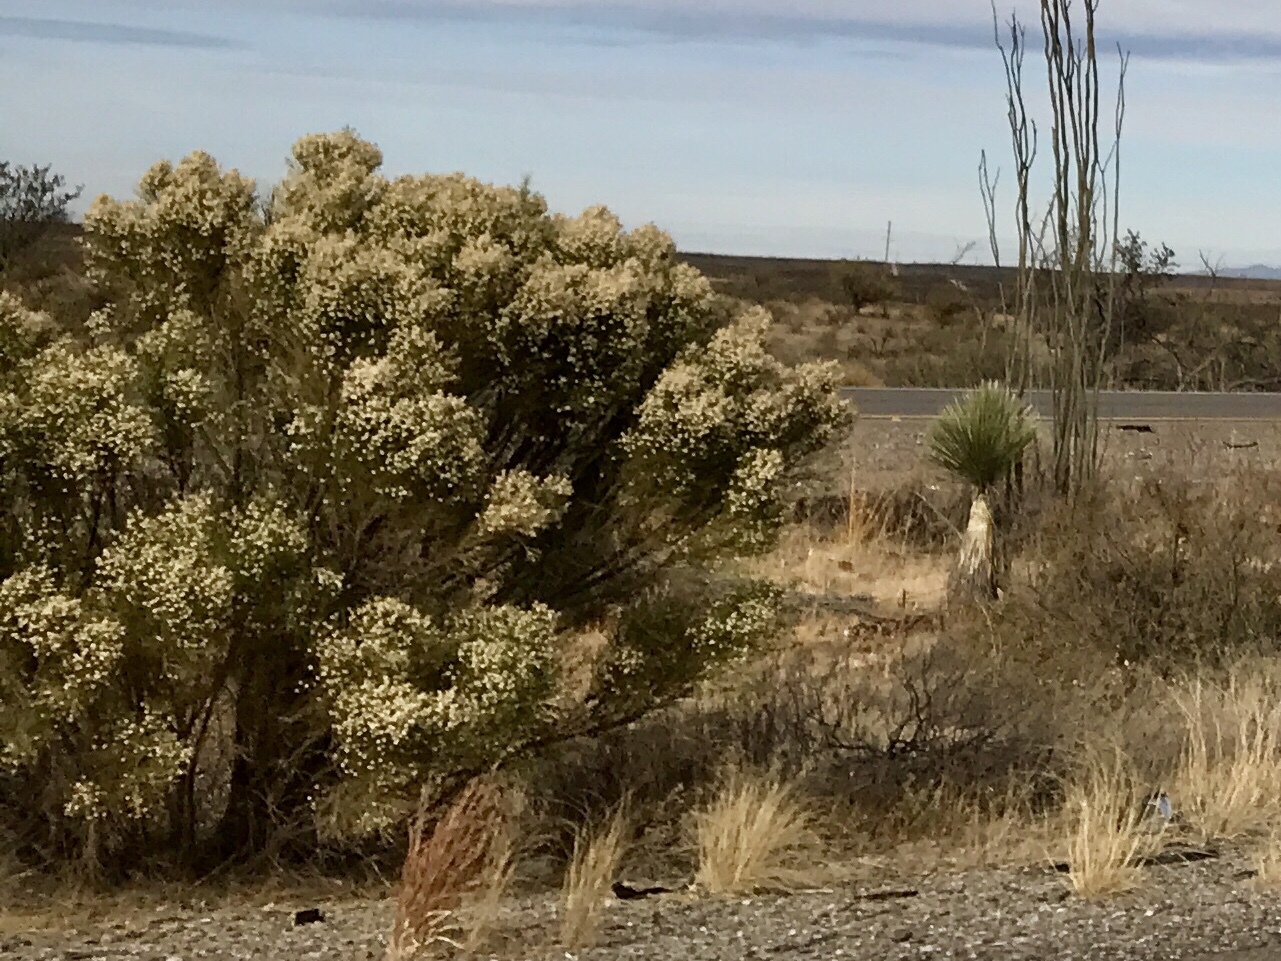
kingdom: Plantae
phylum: Tracheophyta
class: Magnoliopsida
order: Asterales
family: Asteraceae
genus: Baccharis
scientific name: Baccharis sarothroides
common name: Desert-broom
